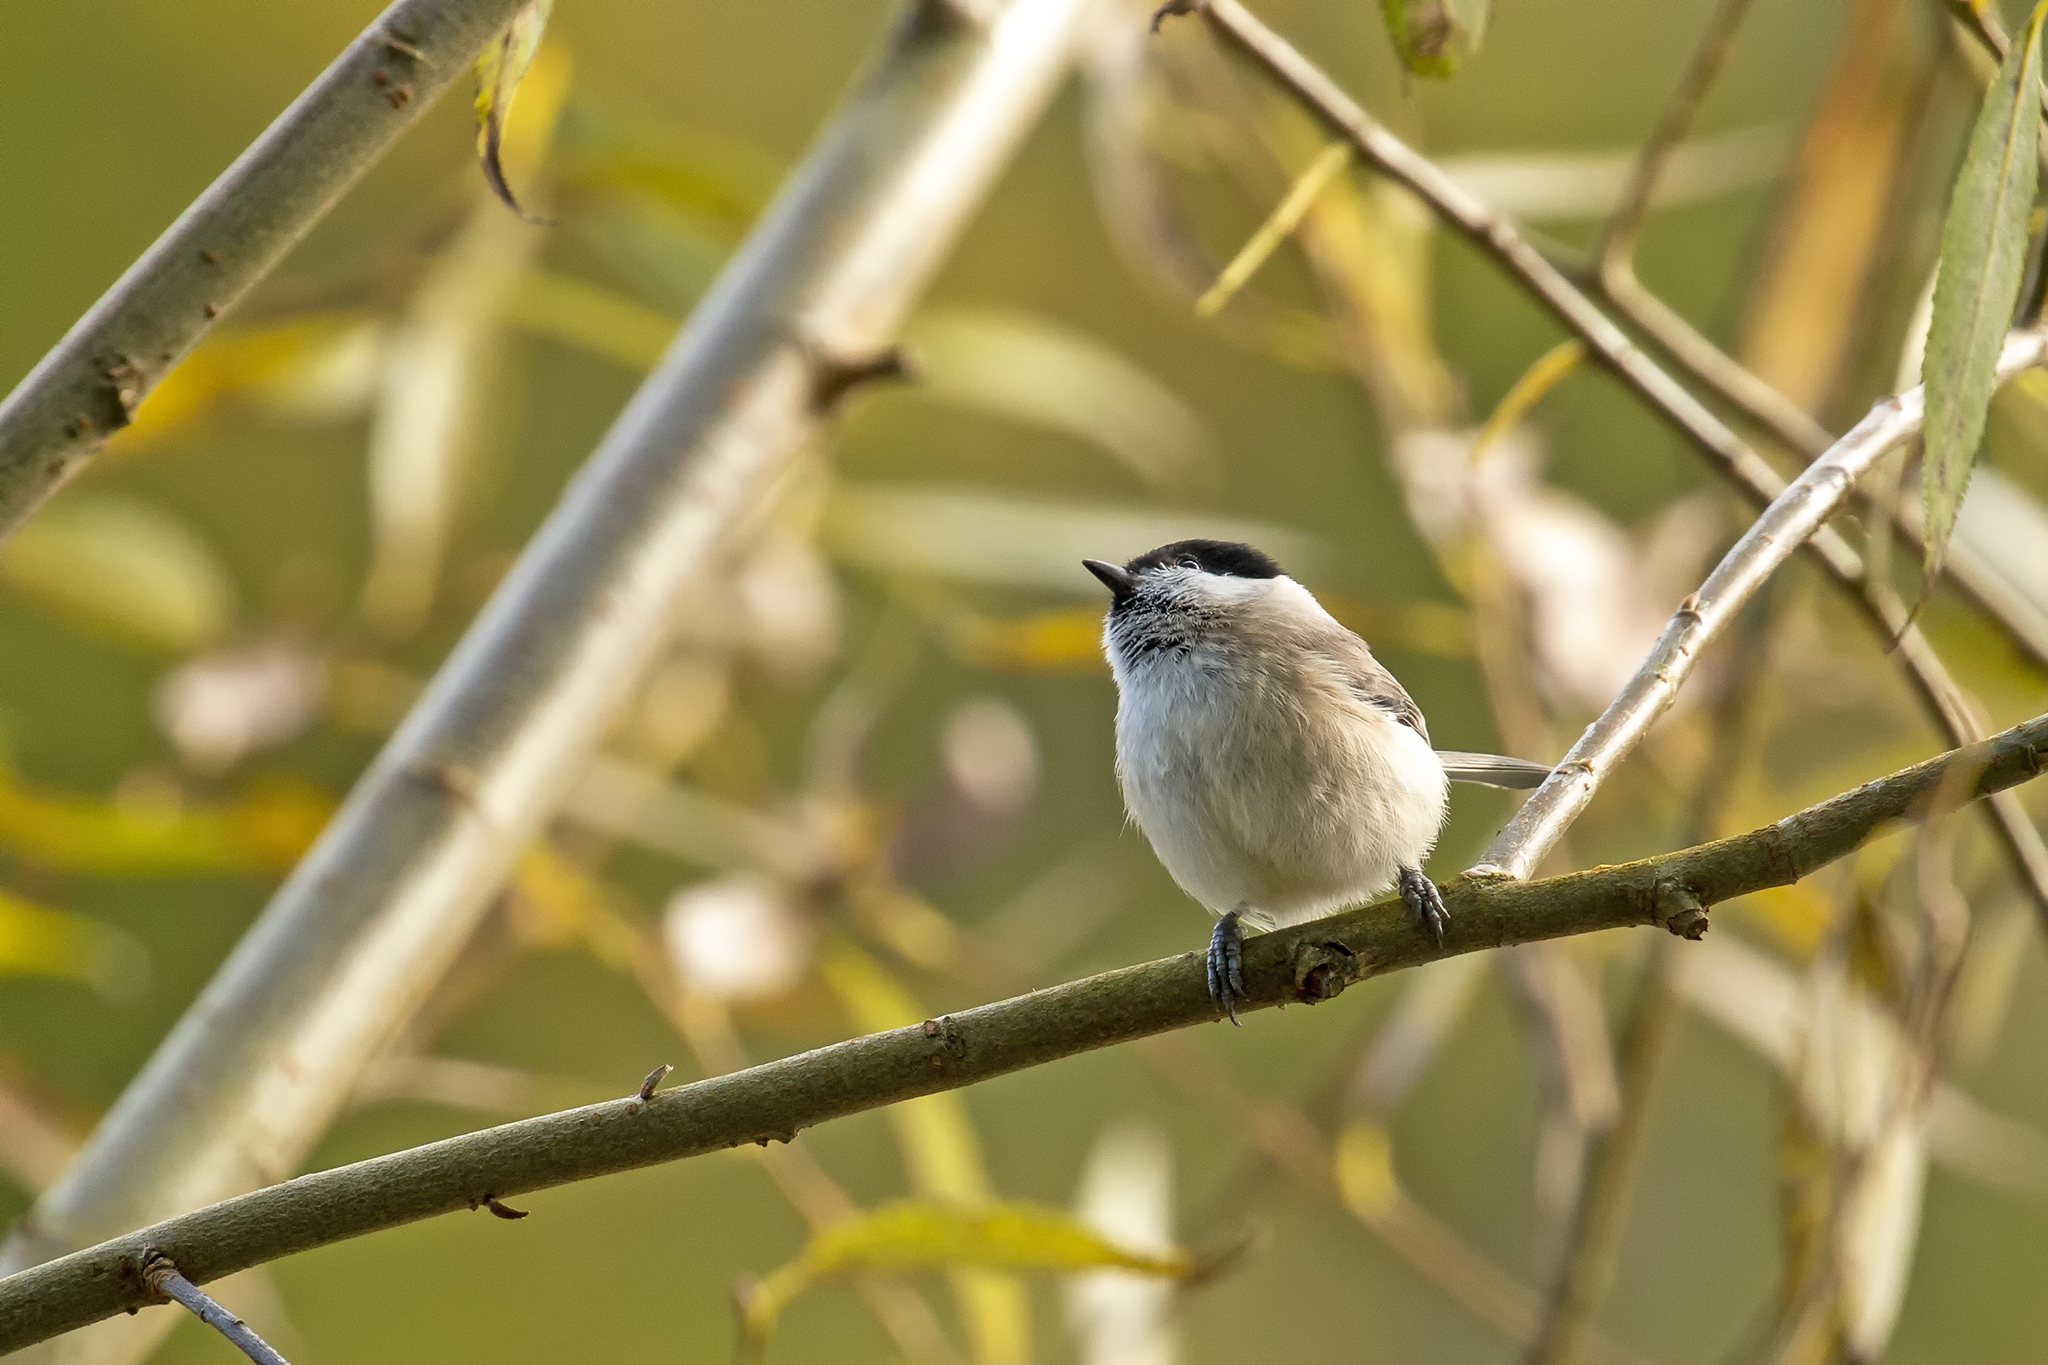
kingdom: Animalia
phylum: Chordata
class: Aves
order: Passeriformes
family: Paridae
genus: Poecile
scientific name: Poecile palustris
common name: Marsh tit
